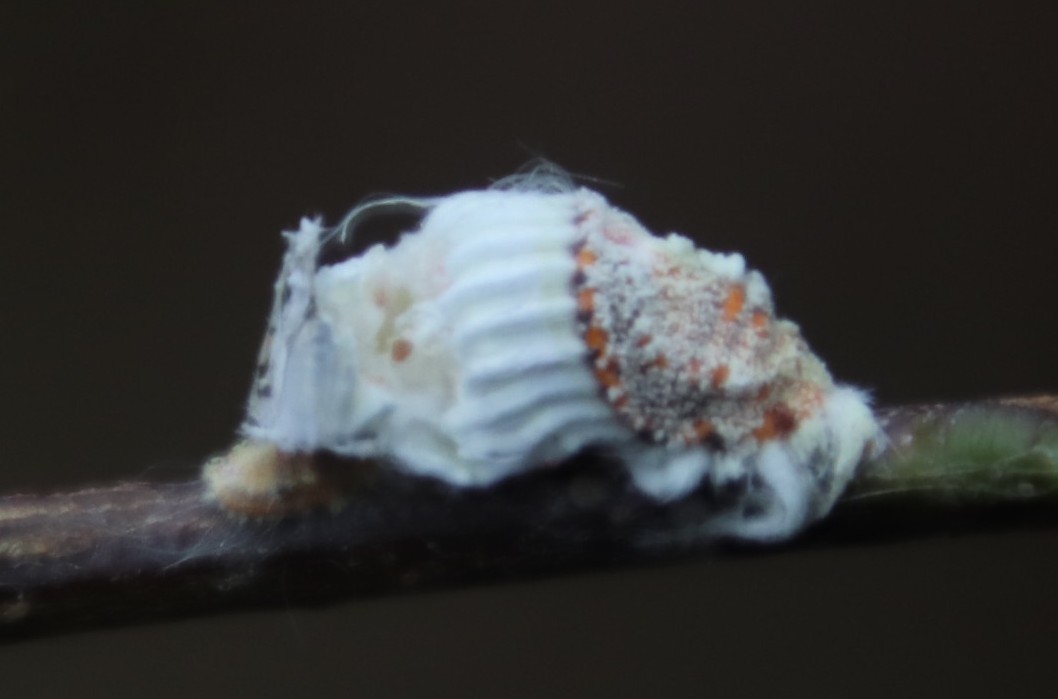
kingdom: Animalia
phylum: Arthropoda
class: Insecta
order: Hemiptera
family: Margarodidae
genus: Icerya
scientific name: Icerya purchasi
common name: Cottony cushion scale
